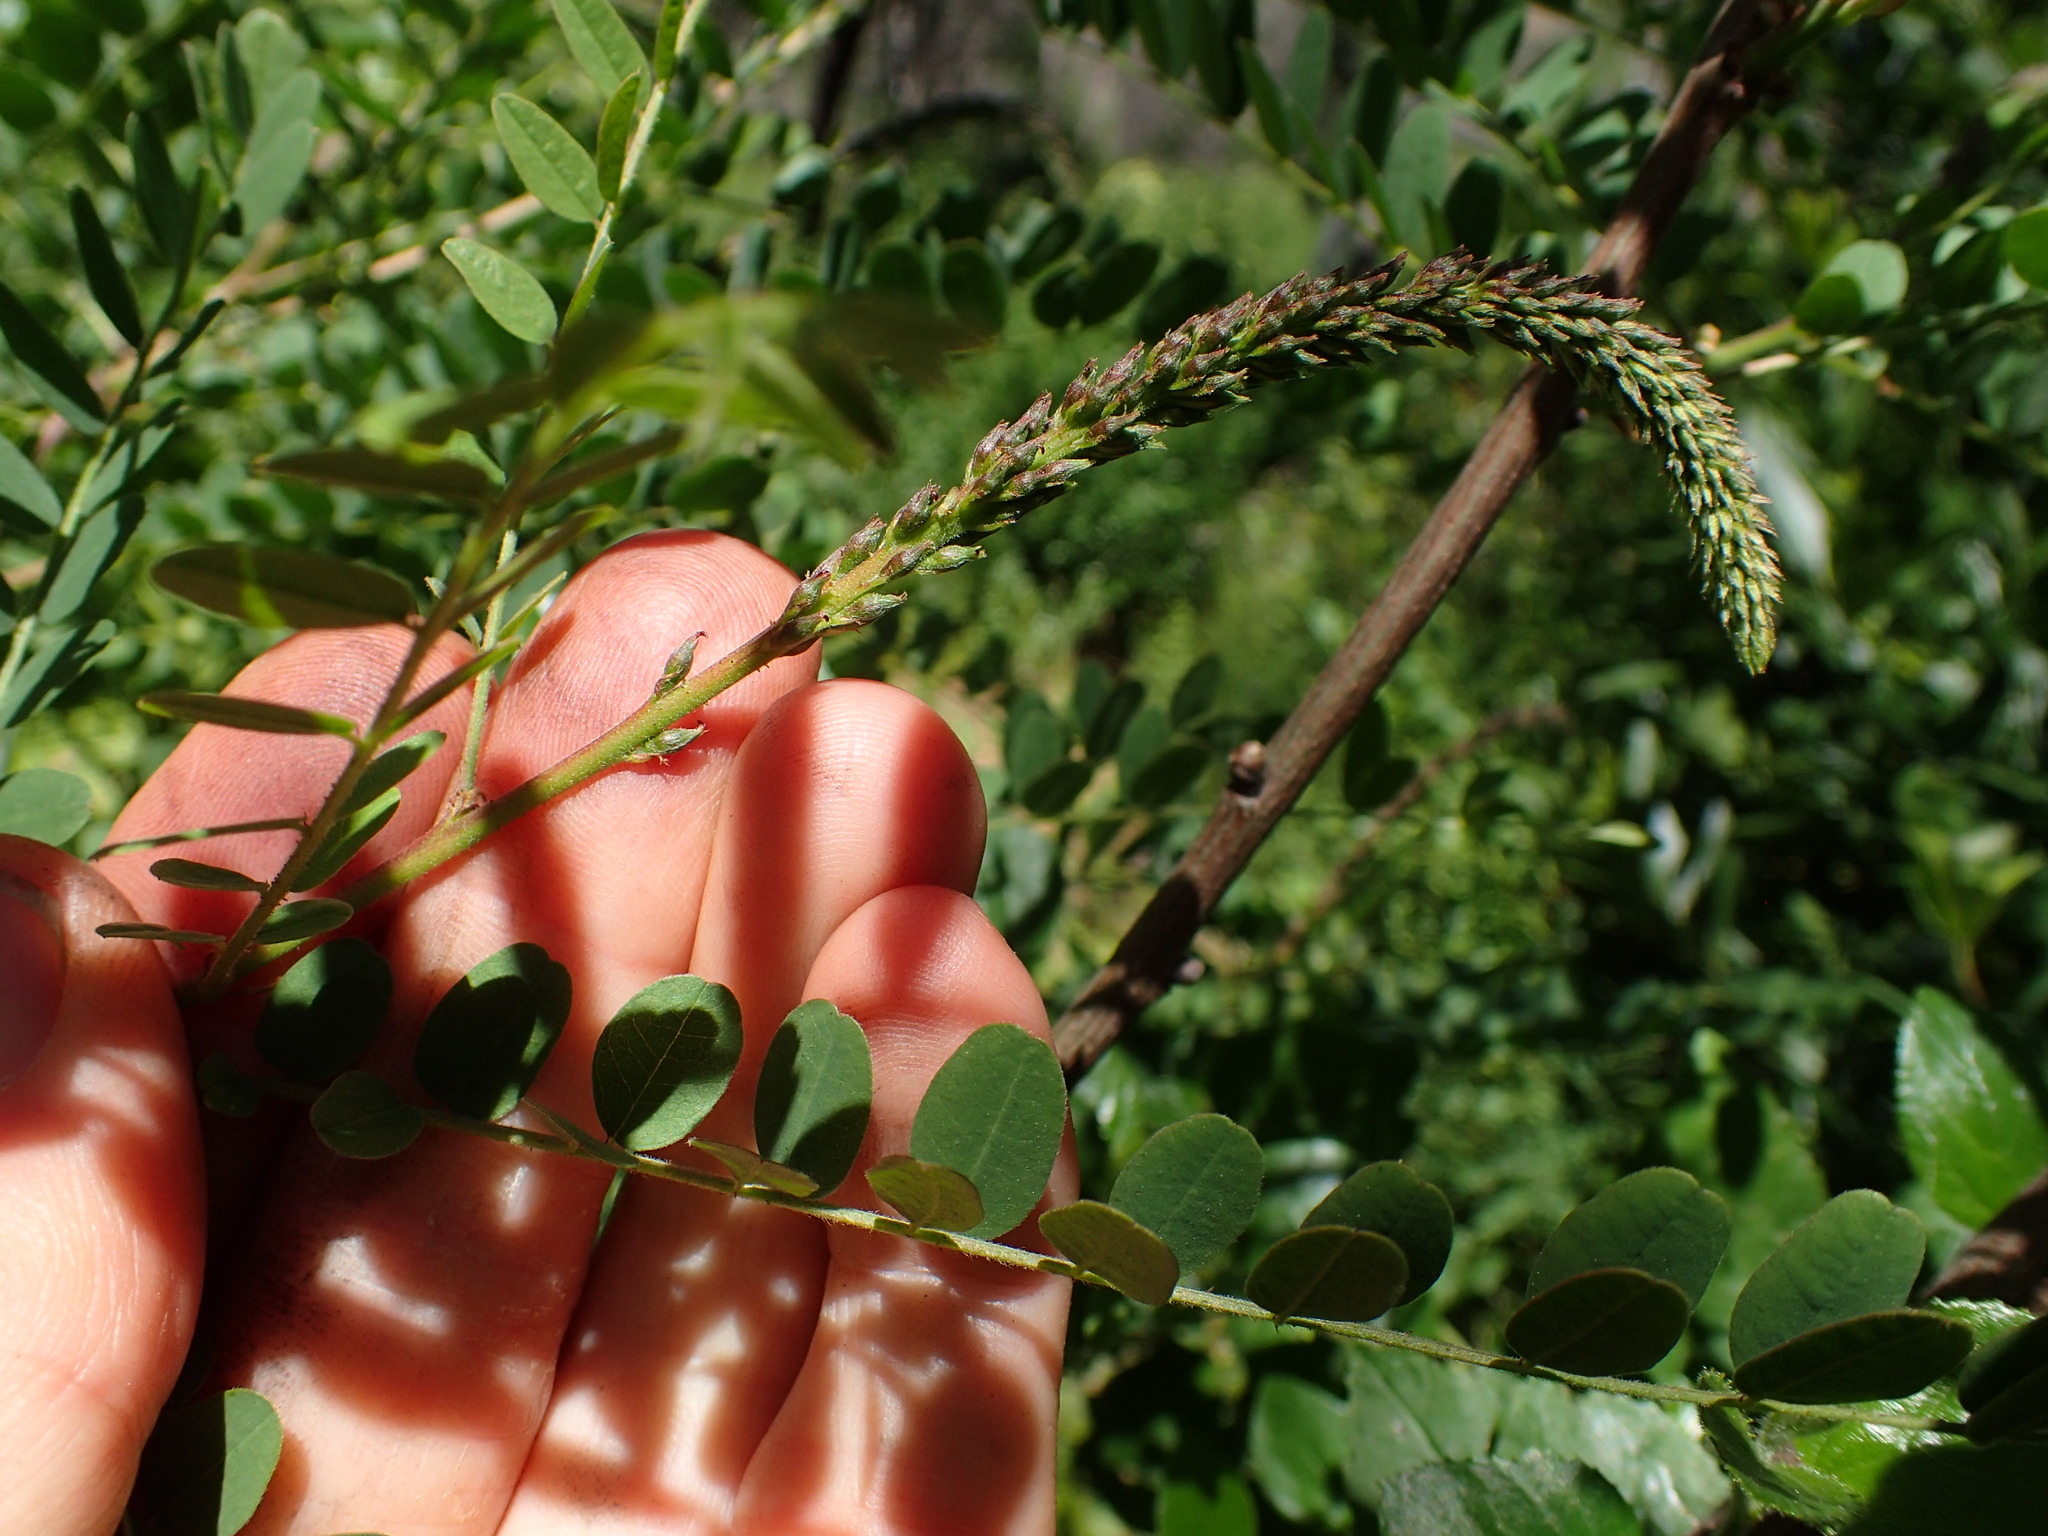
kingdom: Plantae
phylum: Tracheophyta
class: Magnoliopsida
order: Fabales
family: Fabaceae
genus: Amorpha
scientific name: Amorpha californica
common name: California indigobush
